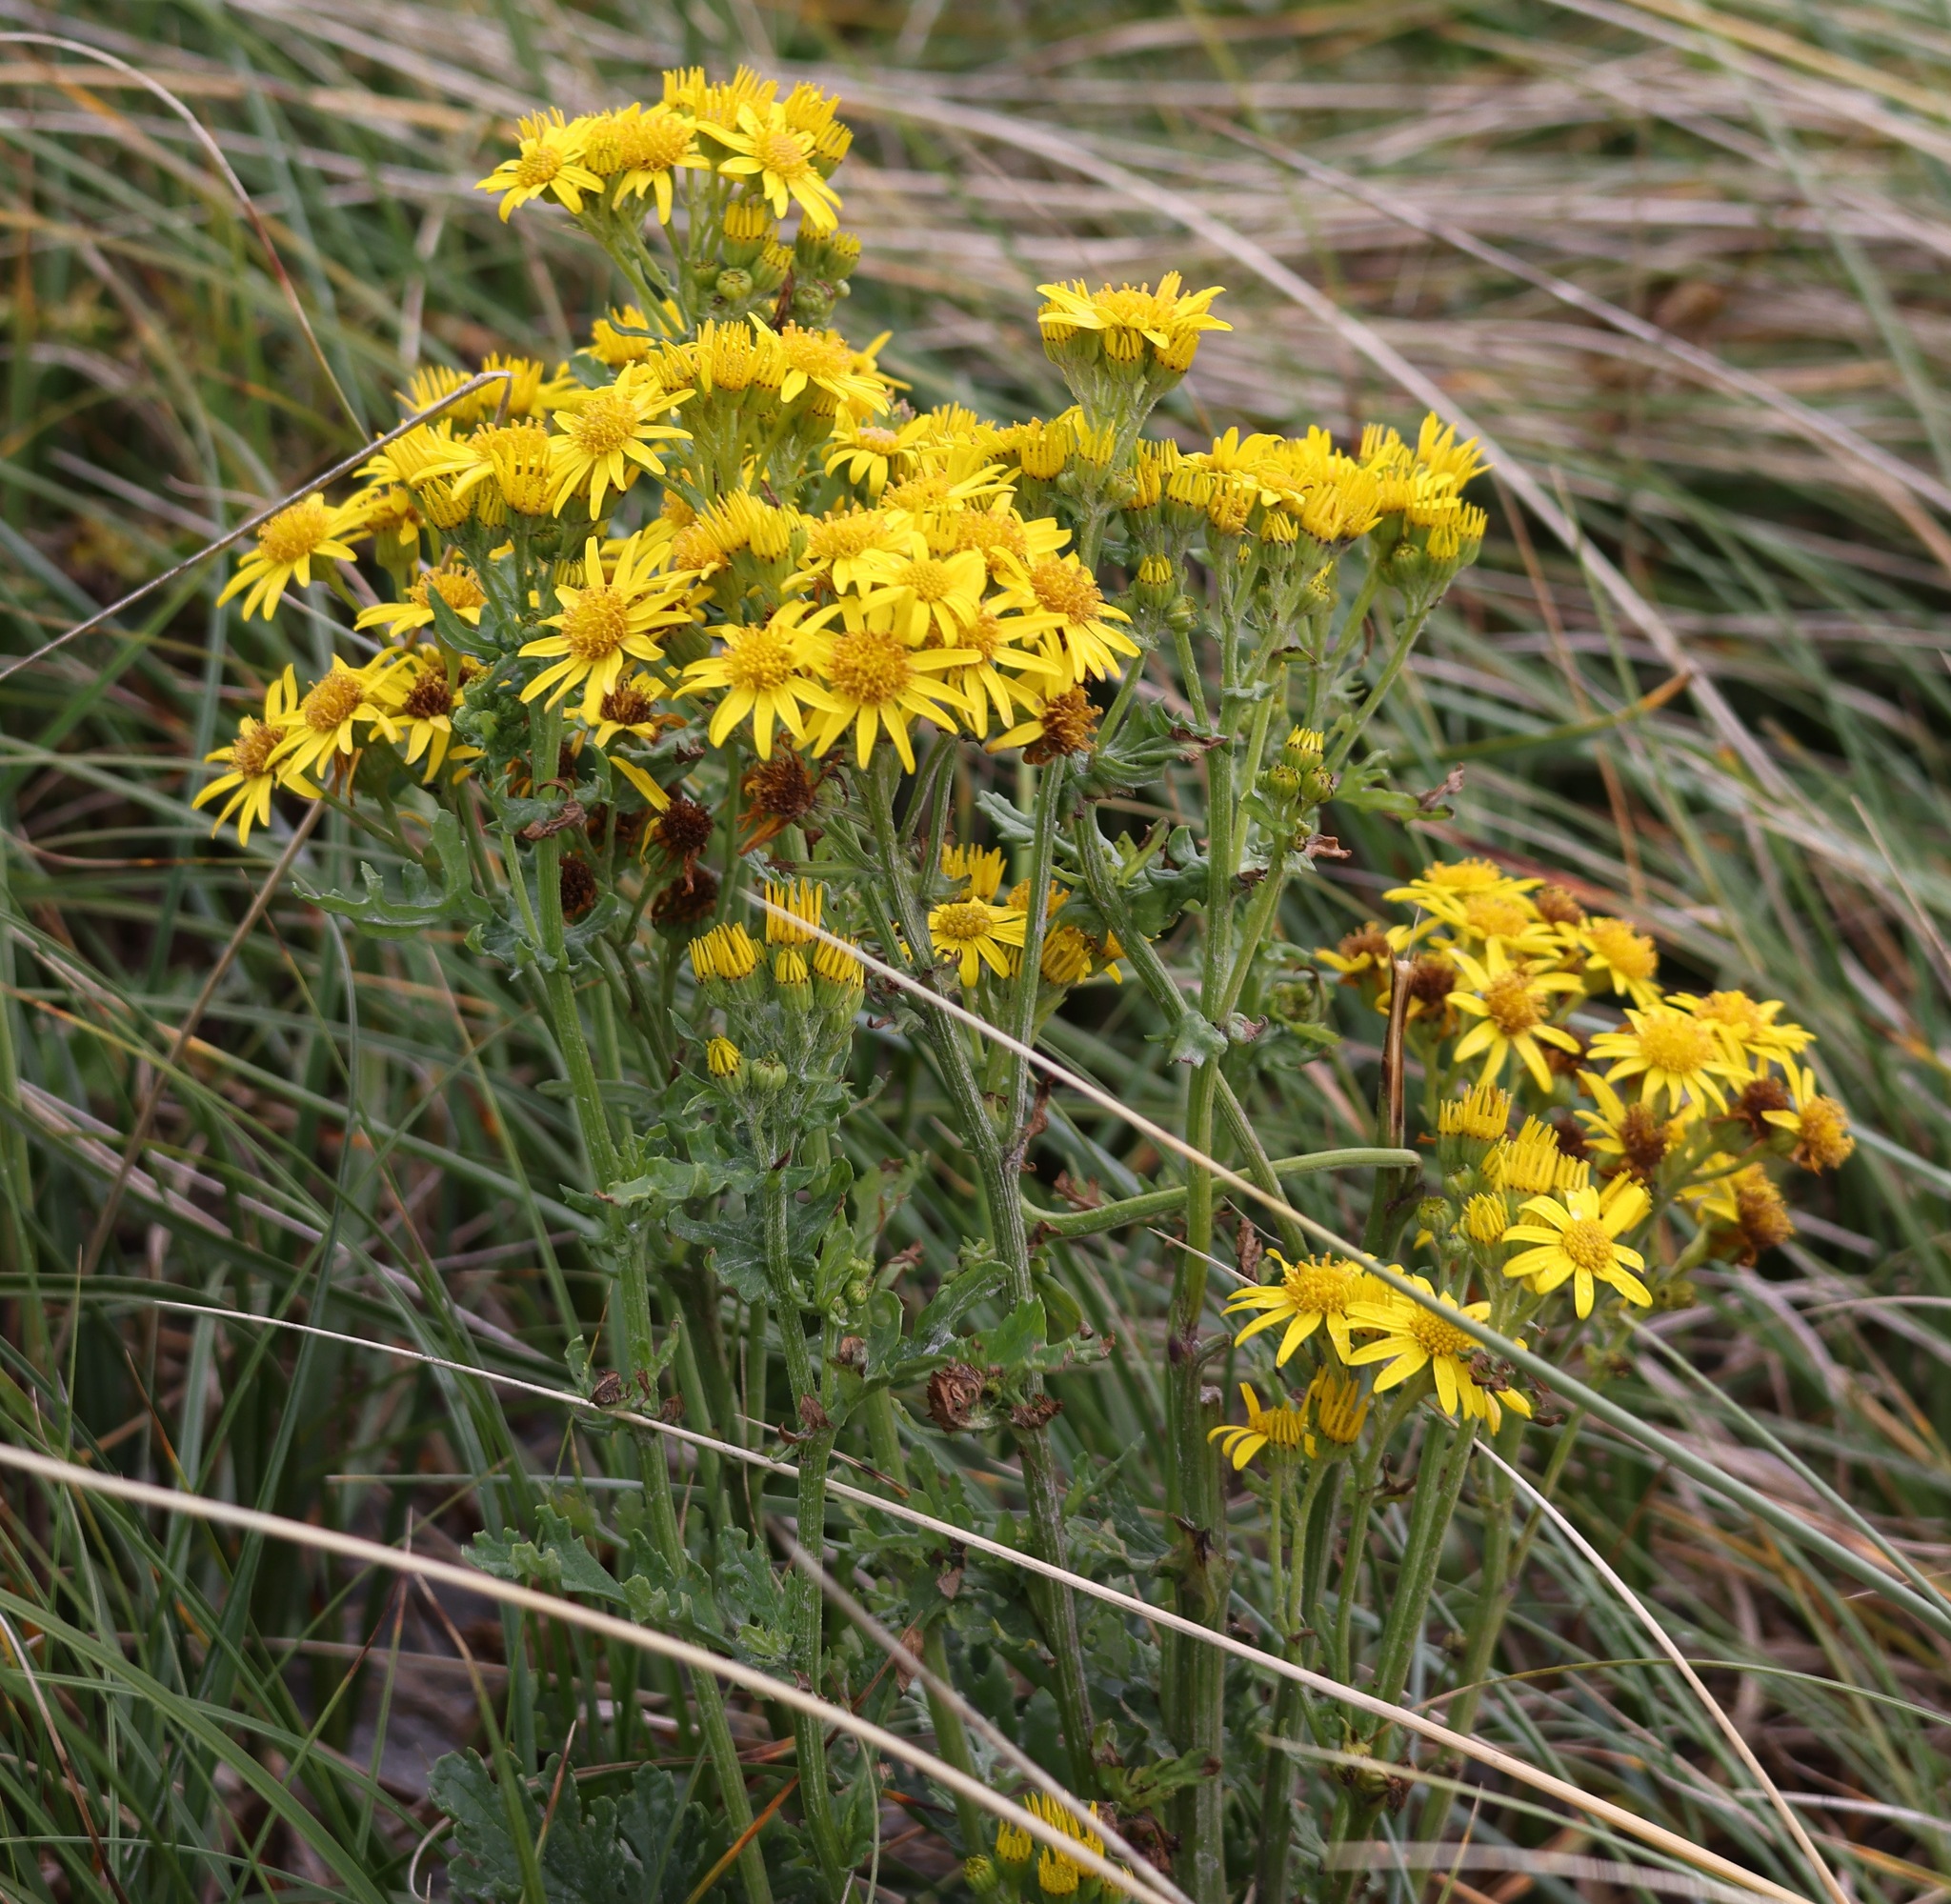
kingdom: Plantae
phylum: Tracheophyta
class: Magnoliopsida
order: Asterales
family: Asteraceae
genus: Jacobaea
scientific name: Jacobaea vulgaris
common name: Stinking willie
